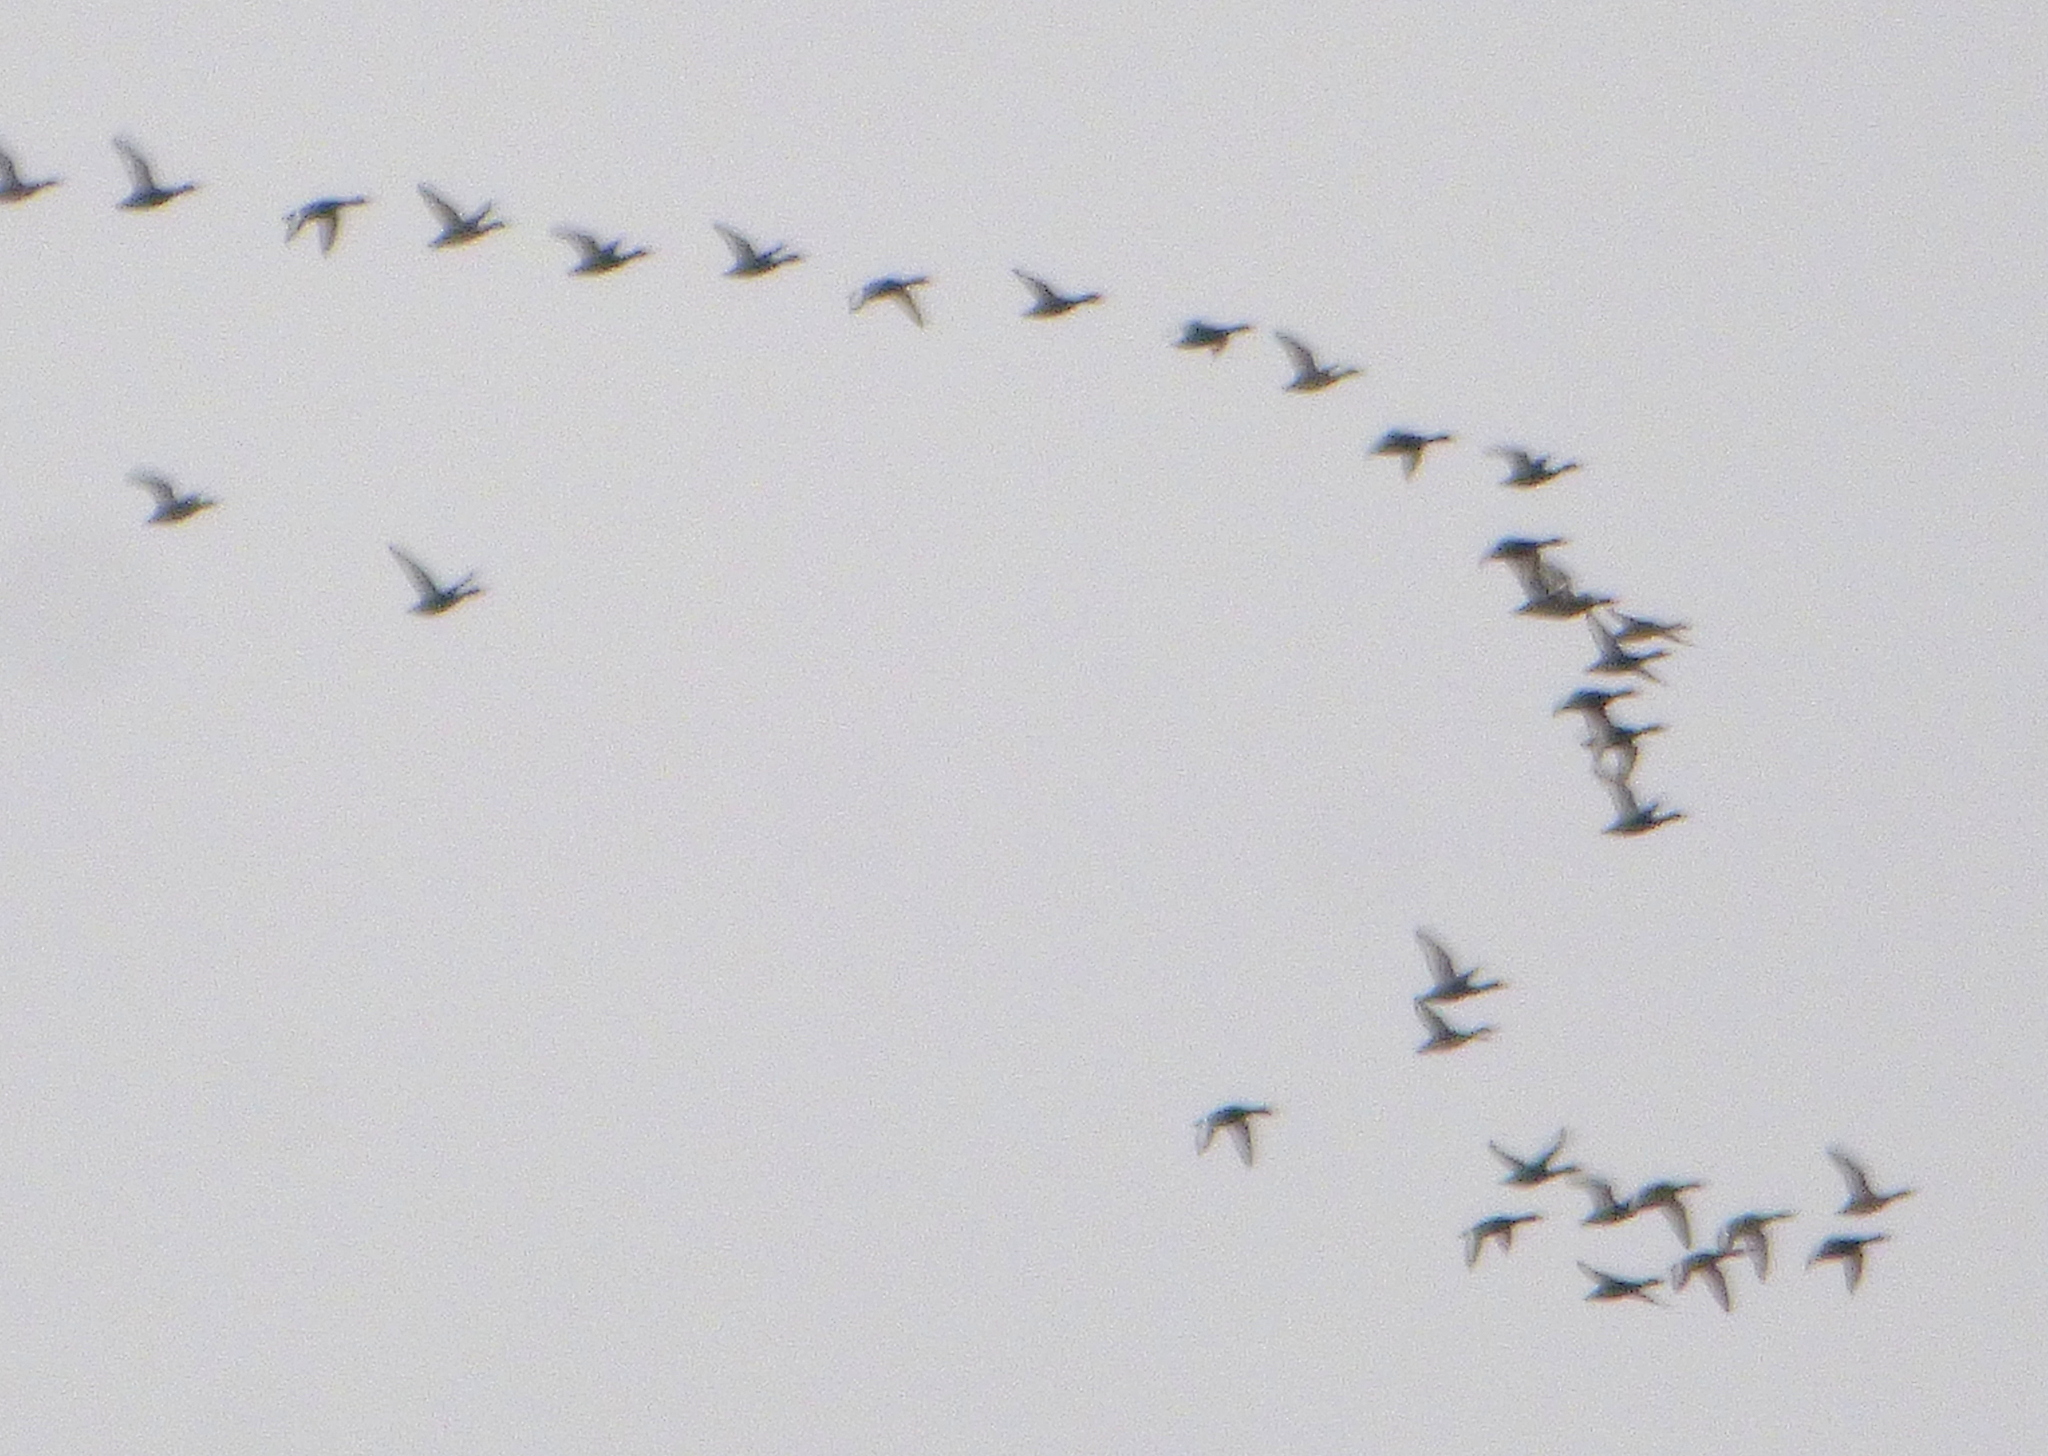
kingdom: Animalia
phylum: Chordata
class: Aves
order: Anseriformes
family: Anatidae
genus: Netta
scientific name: Netta peposaca
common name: Rosy-billed pochard
